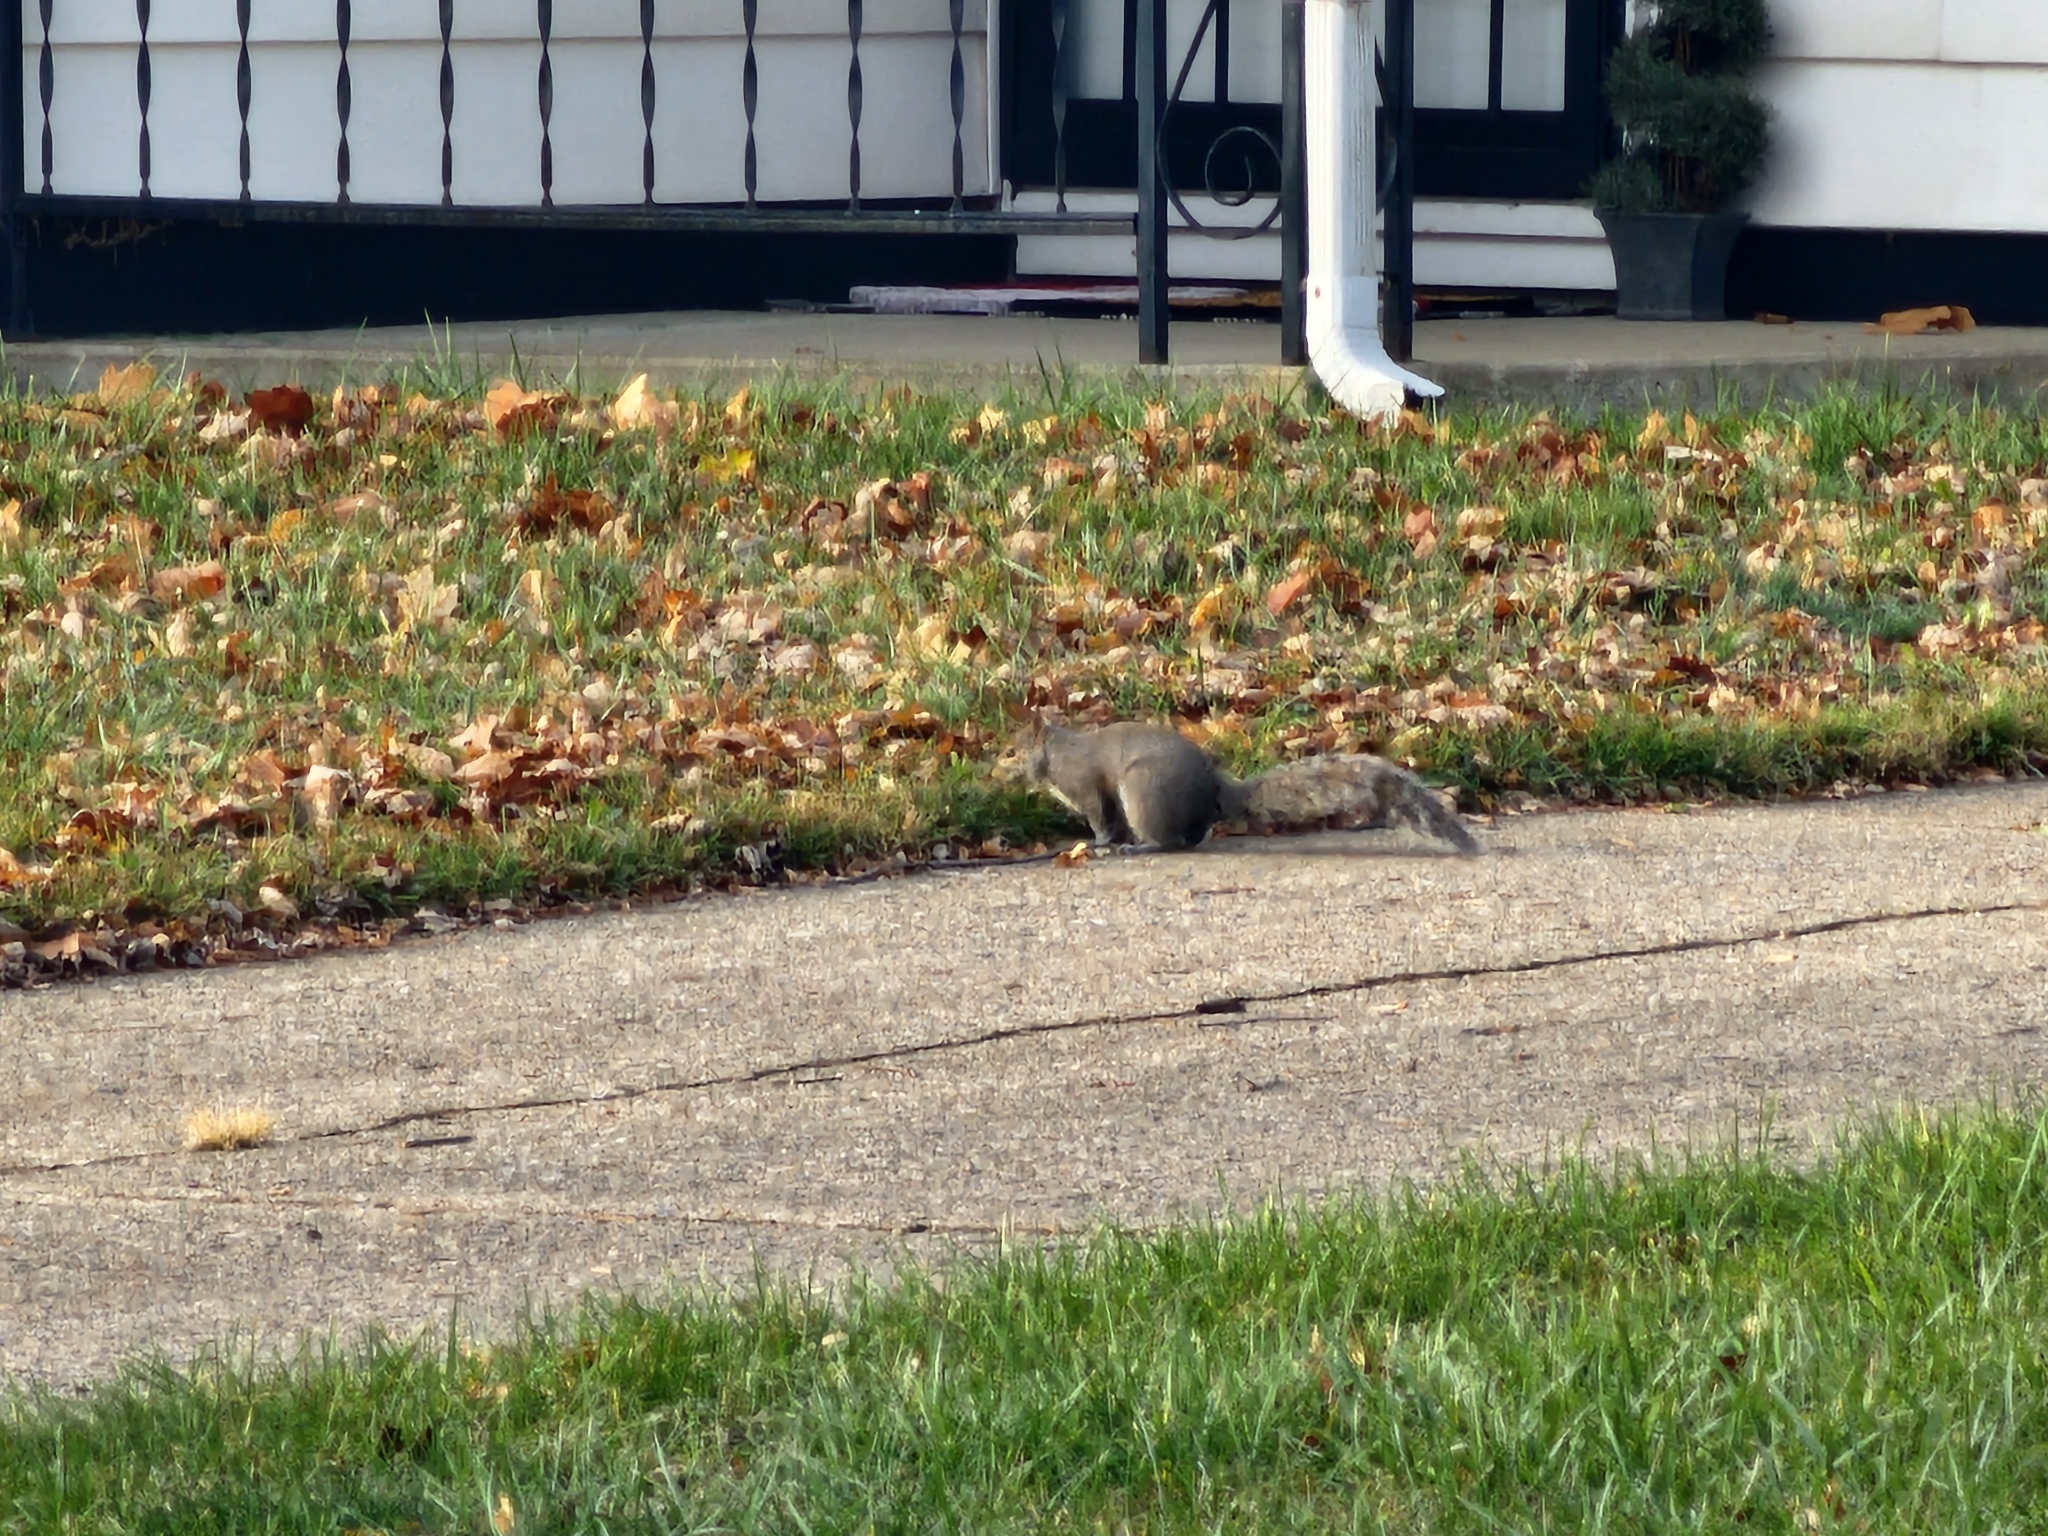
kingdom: Animalia
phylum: Chordata
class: Mammalia
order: Rodentia
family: Sciuridae
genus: Sciurus
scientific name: Sciurus carolinensis
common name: Eastern gray squirrel
